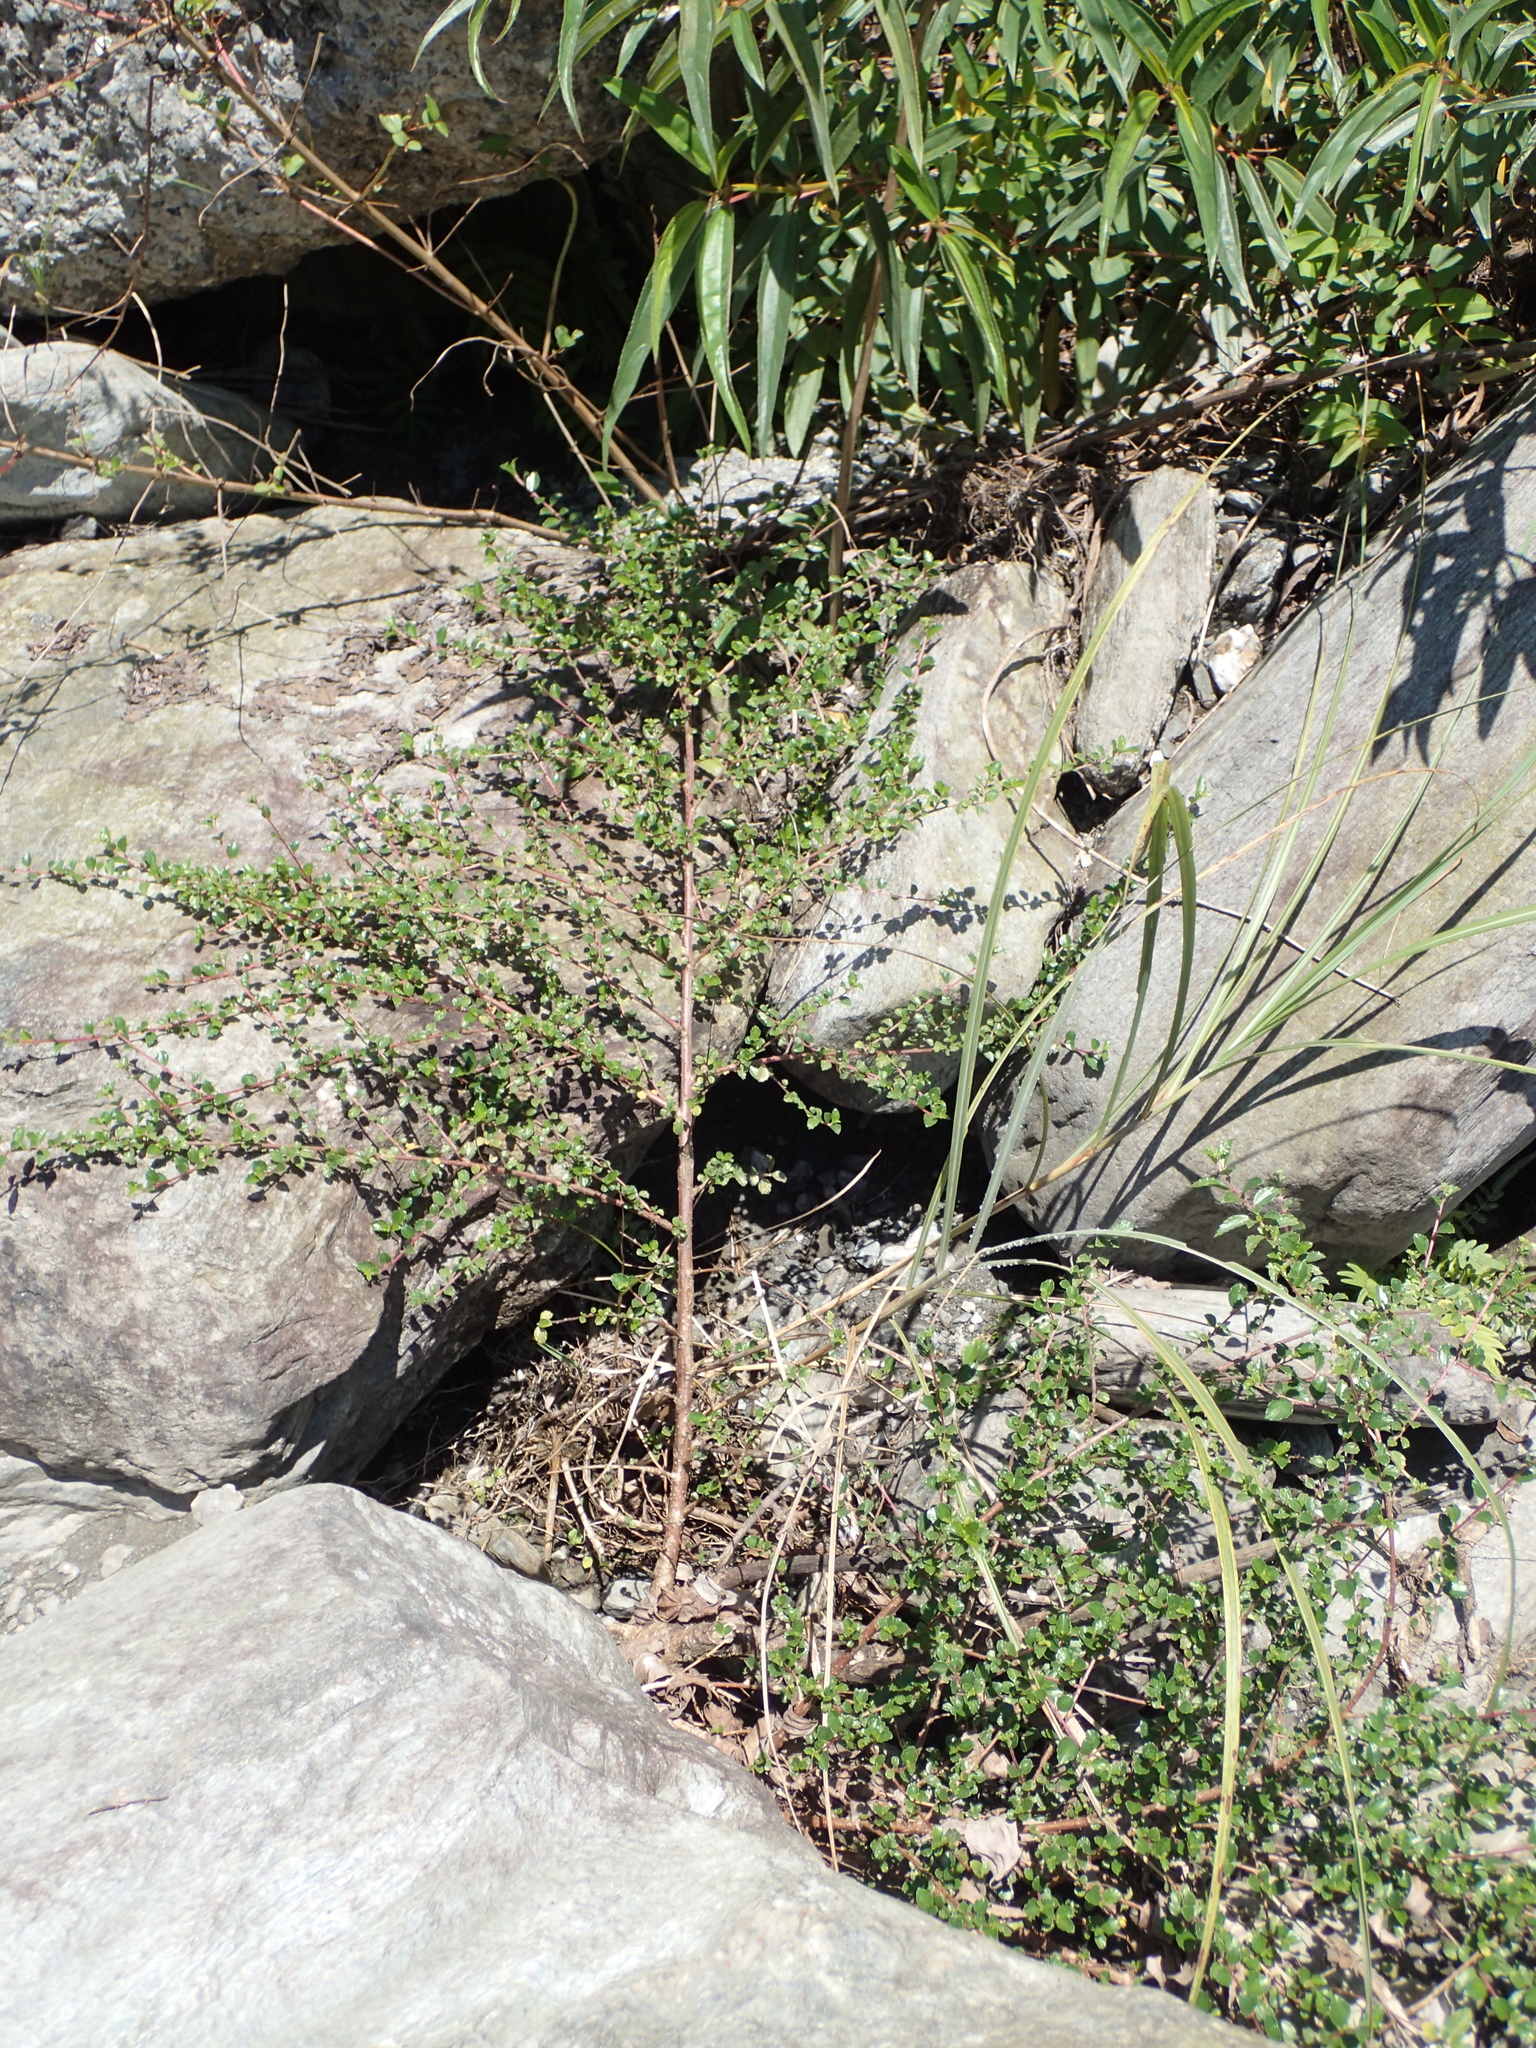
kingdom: Plantae
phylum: Tracheophyta
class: Magnoliopsida
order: Rosales
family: Urticaceae
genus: Pouzolzia
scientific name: Pouzolzia sanguinea
